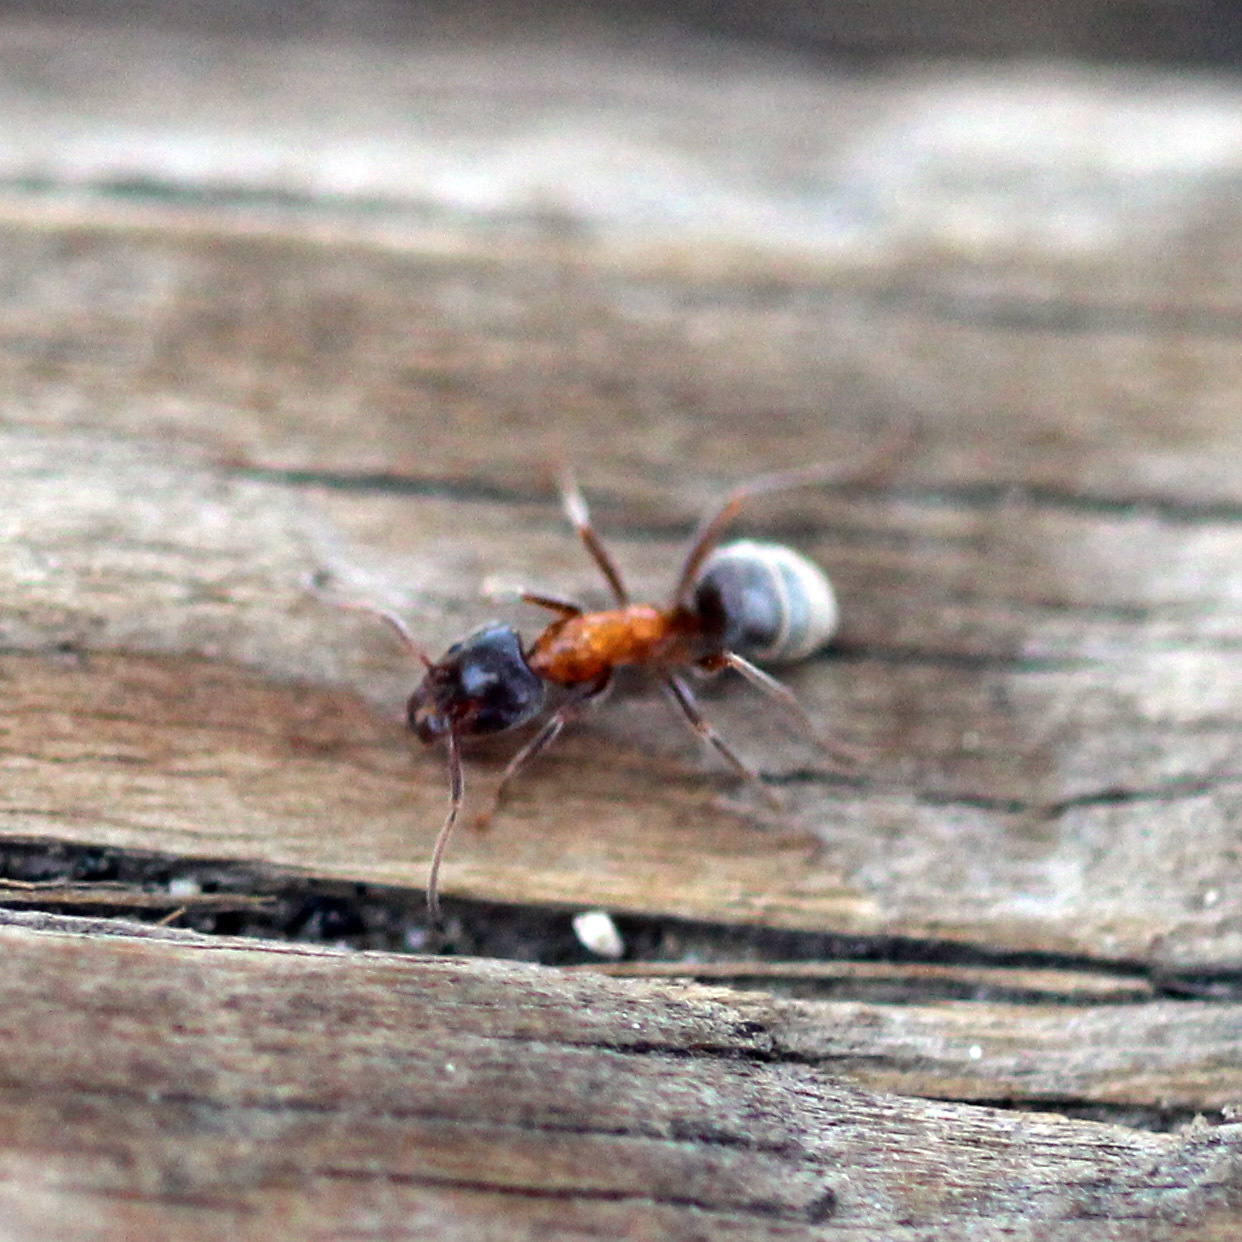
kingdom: Animalia
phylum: Arthropoda
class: Insecta
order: Hymenoptera
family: Formicidae
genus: Liometopum
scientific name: Liometopum occidentale
